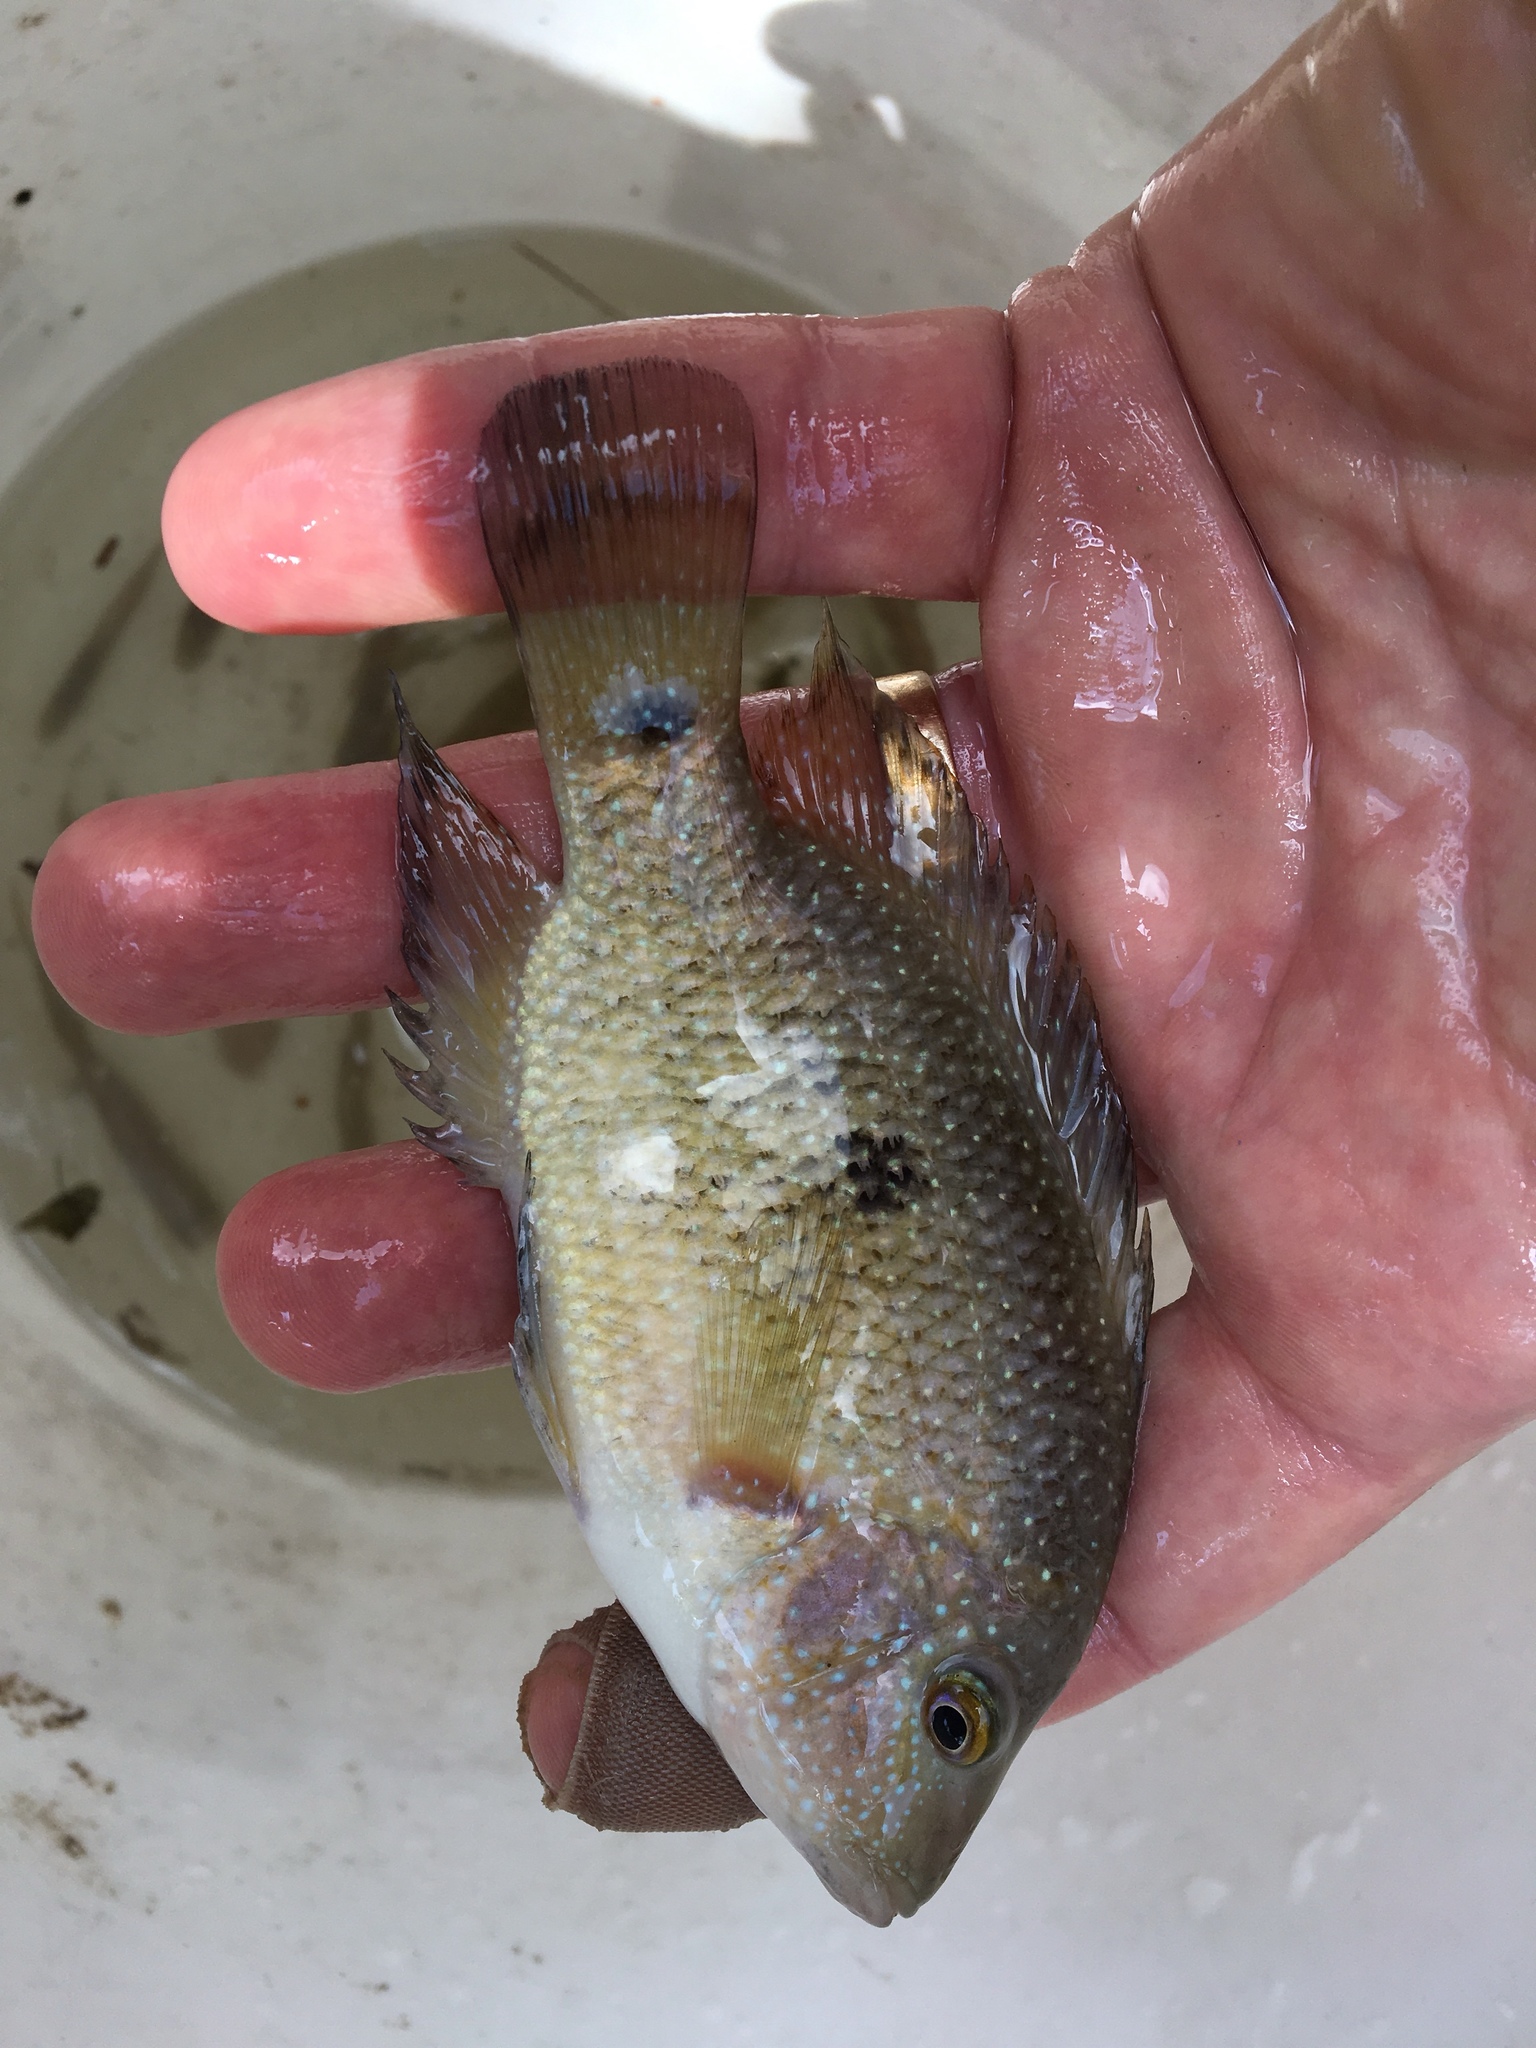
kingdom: Animalia
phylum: Chordata
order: Perciformes
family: Cichlidae
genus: Herichthys
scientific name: Herichthys cyanoguttatus
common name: Rio grande cichlid
